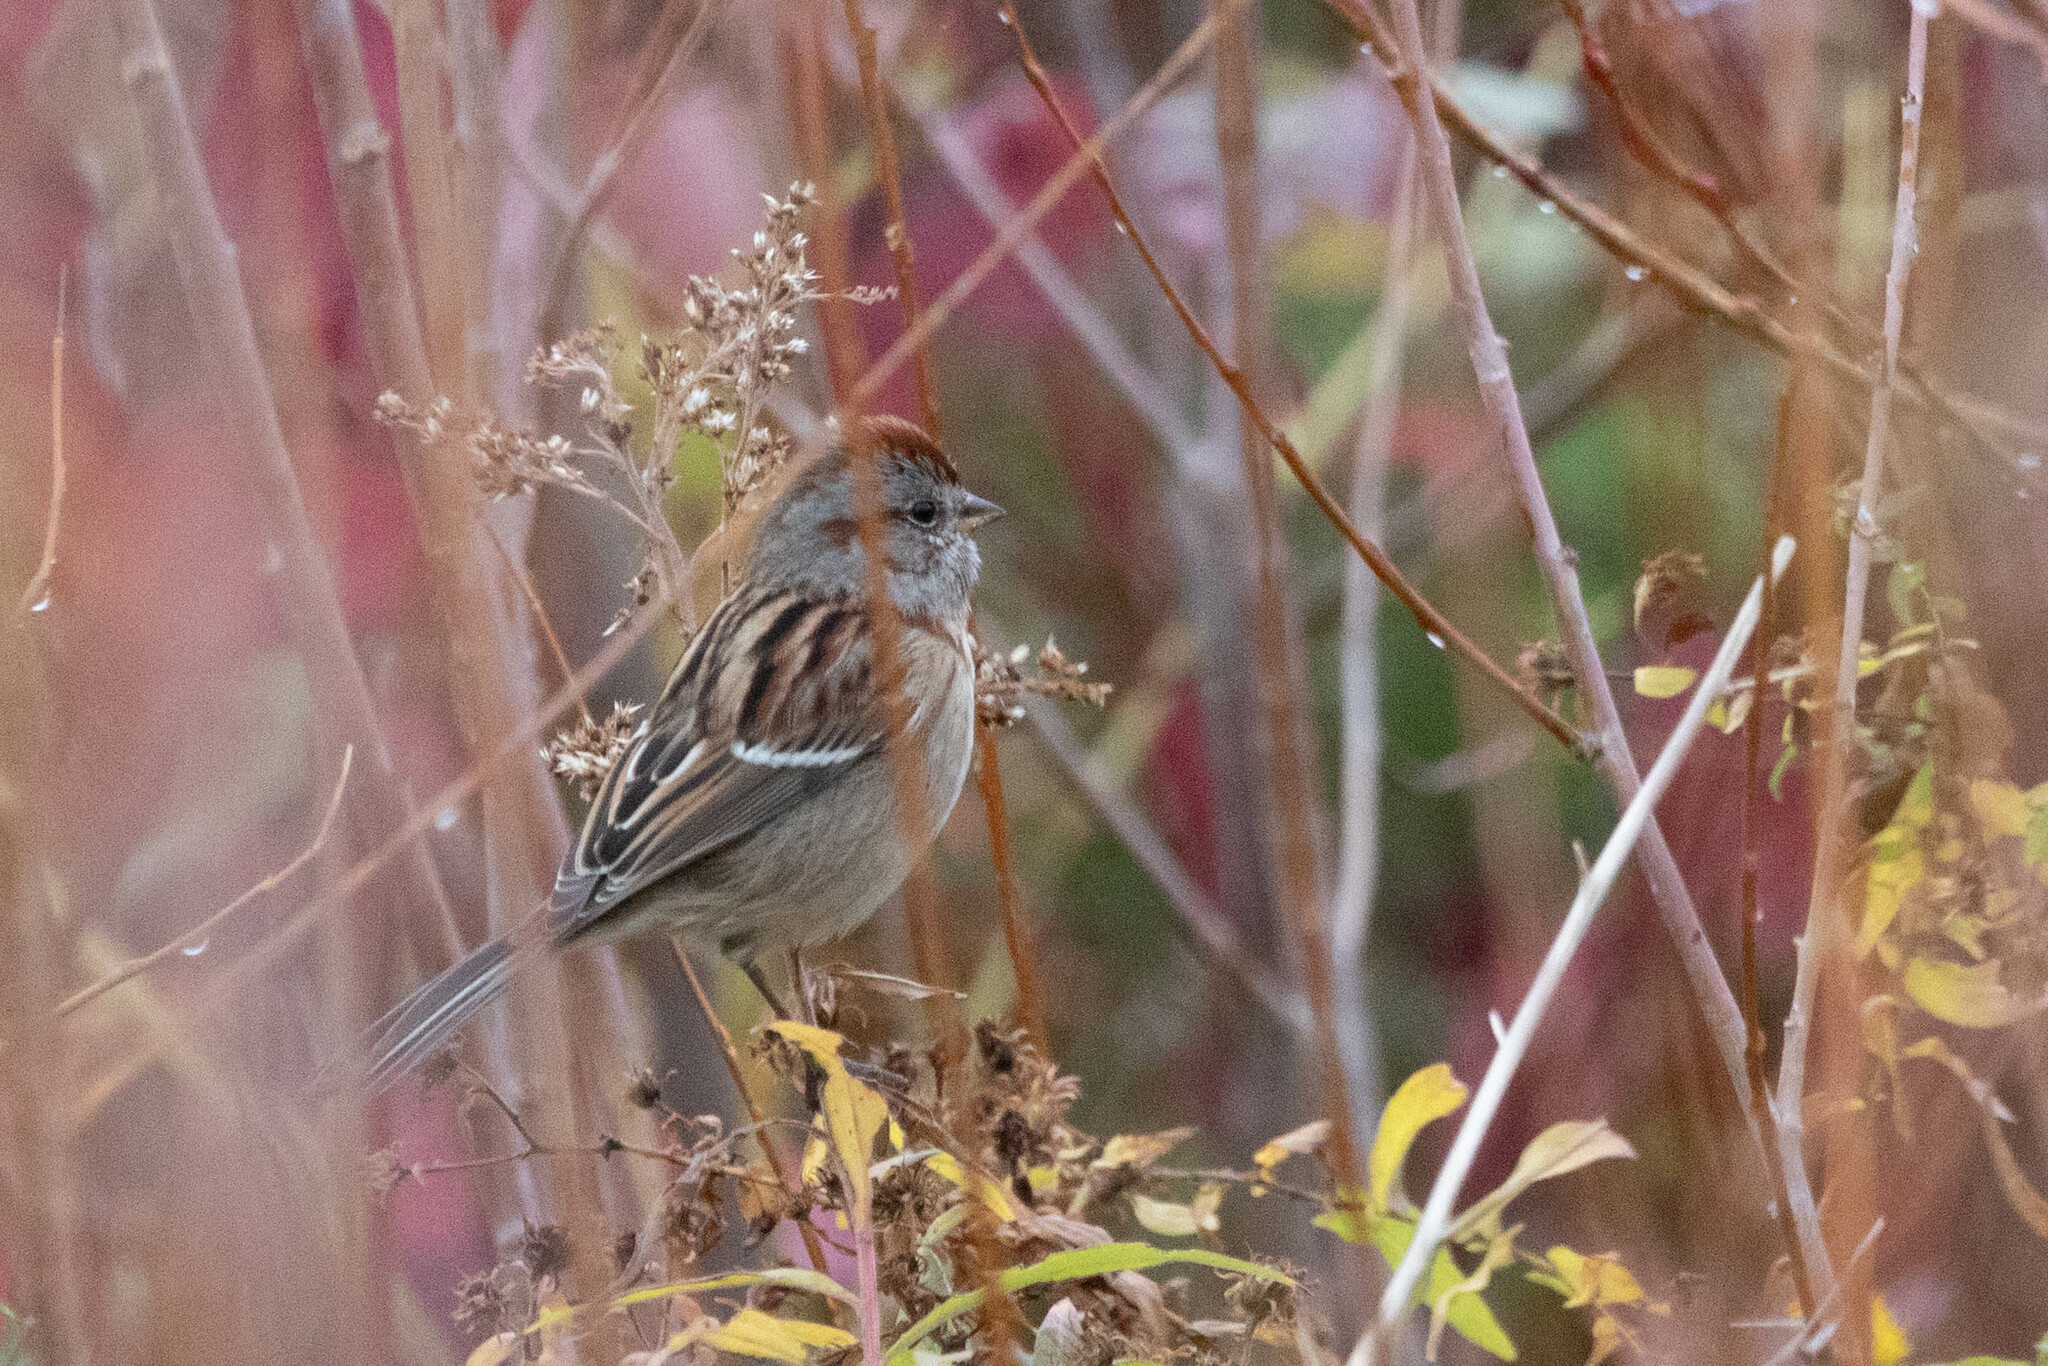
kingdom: Animalia
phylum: Chordata
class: Aves
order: Passeriformes
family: Passerellidae
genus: Spizelloides
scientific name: Spizelloides arborea
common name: American tree sparrow
